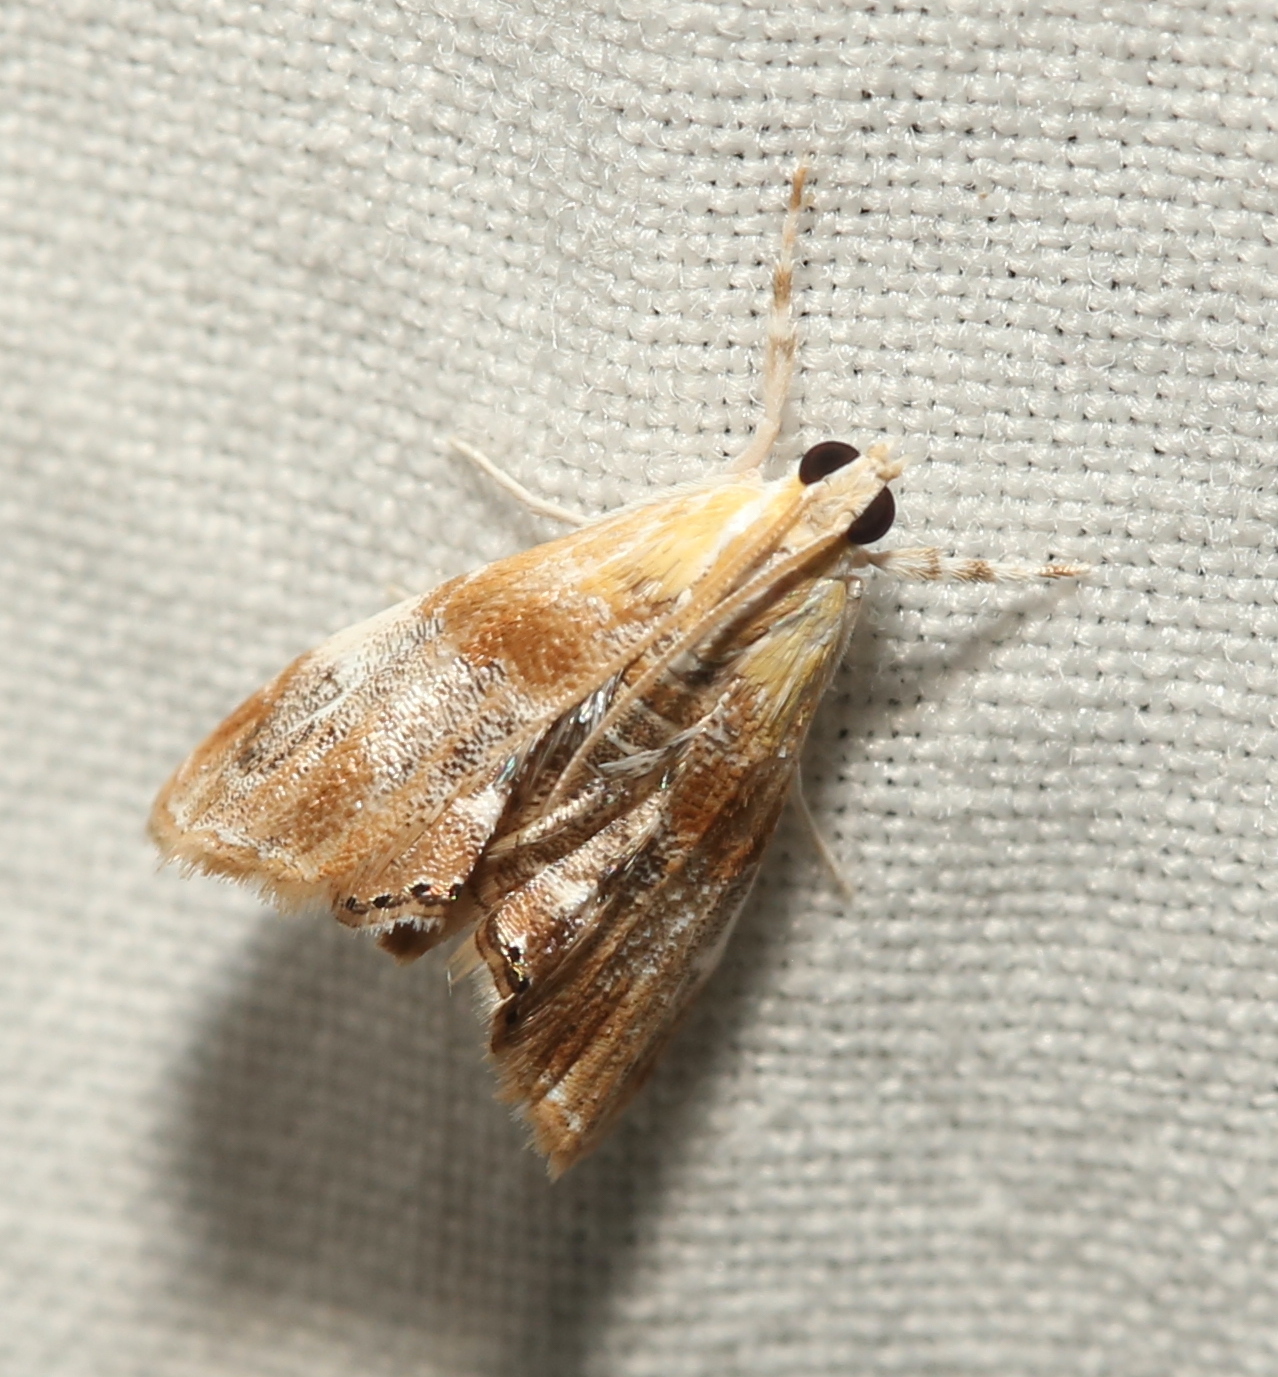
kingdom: Animalia
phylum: Arthropoda
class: Insecta
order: Lepidoptera
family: Crambidae
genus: Dicymolomia
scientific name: Dicymolomia julianalis
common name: Julia's dicymolomia moth
